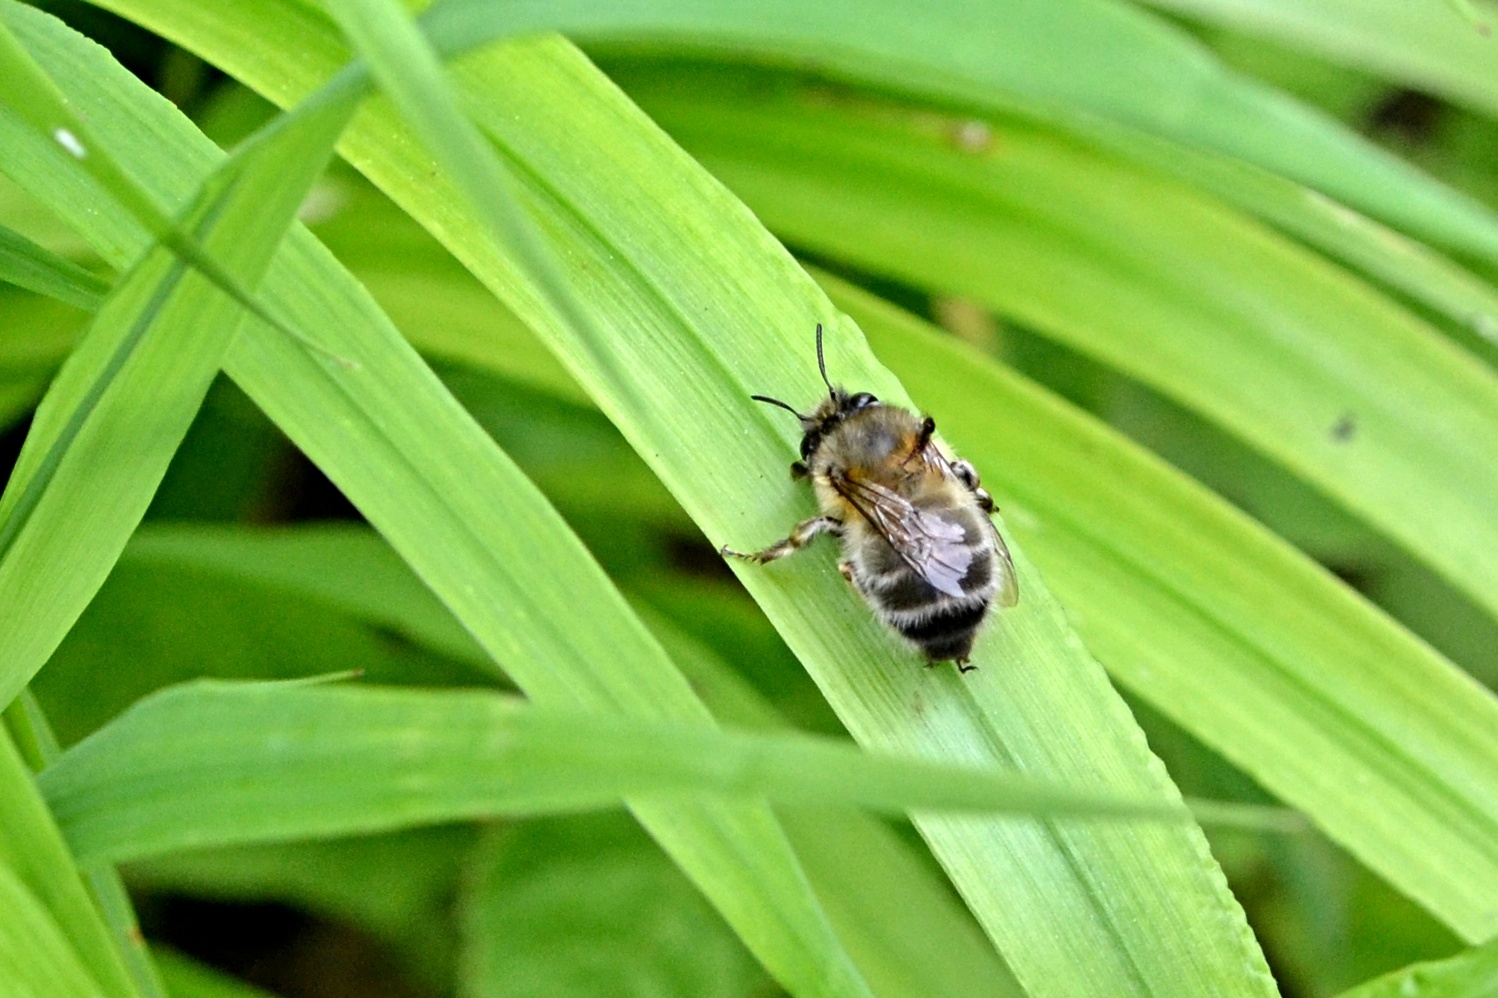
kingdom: Animalia
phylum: Arthropoda
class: Insecta
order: Hymenoptera
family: Apidae
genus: Anthophora
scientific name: Anthophora plumipes
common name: Hairy-footed flower bee
